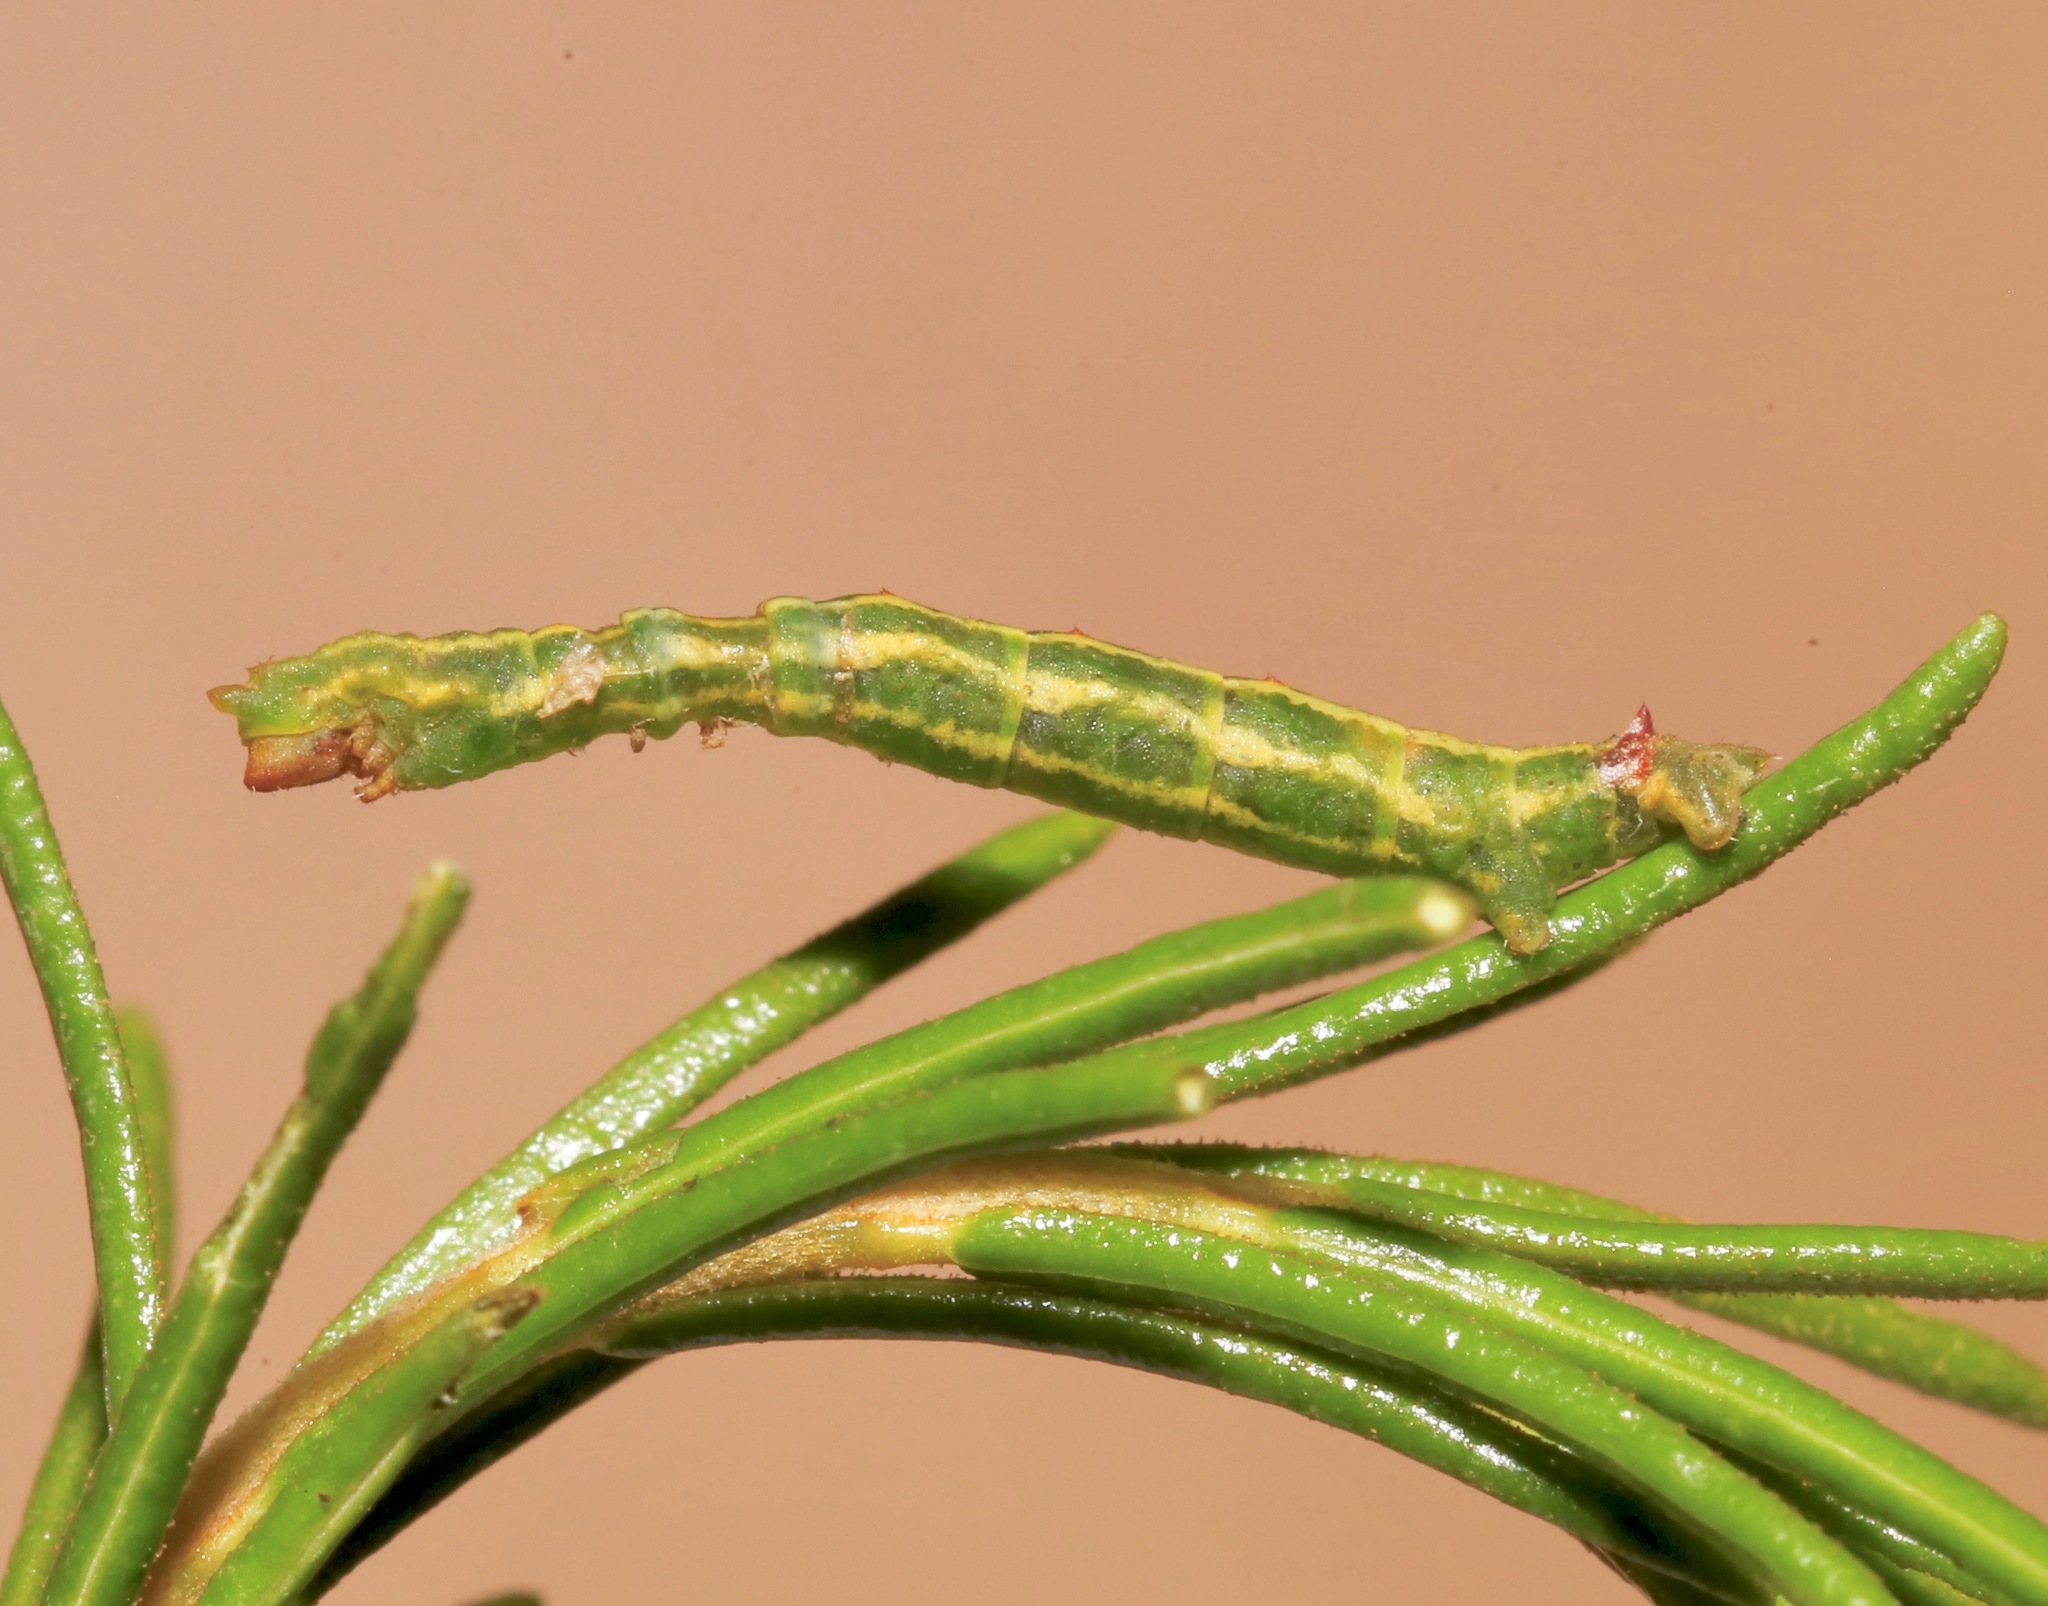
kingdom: Animalia
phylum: Arthropoda
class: Insecta
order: Lepidoptera
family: Geometridae
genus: Nemoria
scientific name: Nemoria outina
